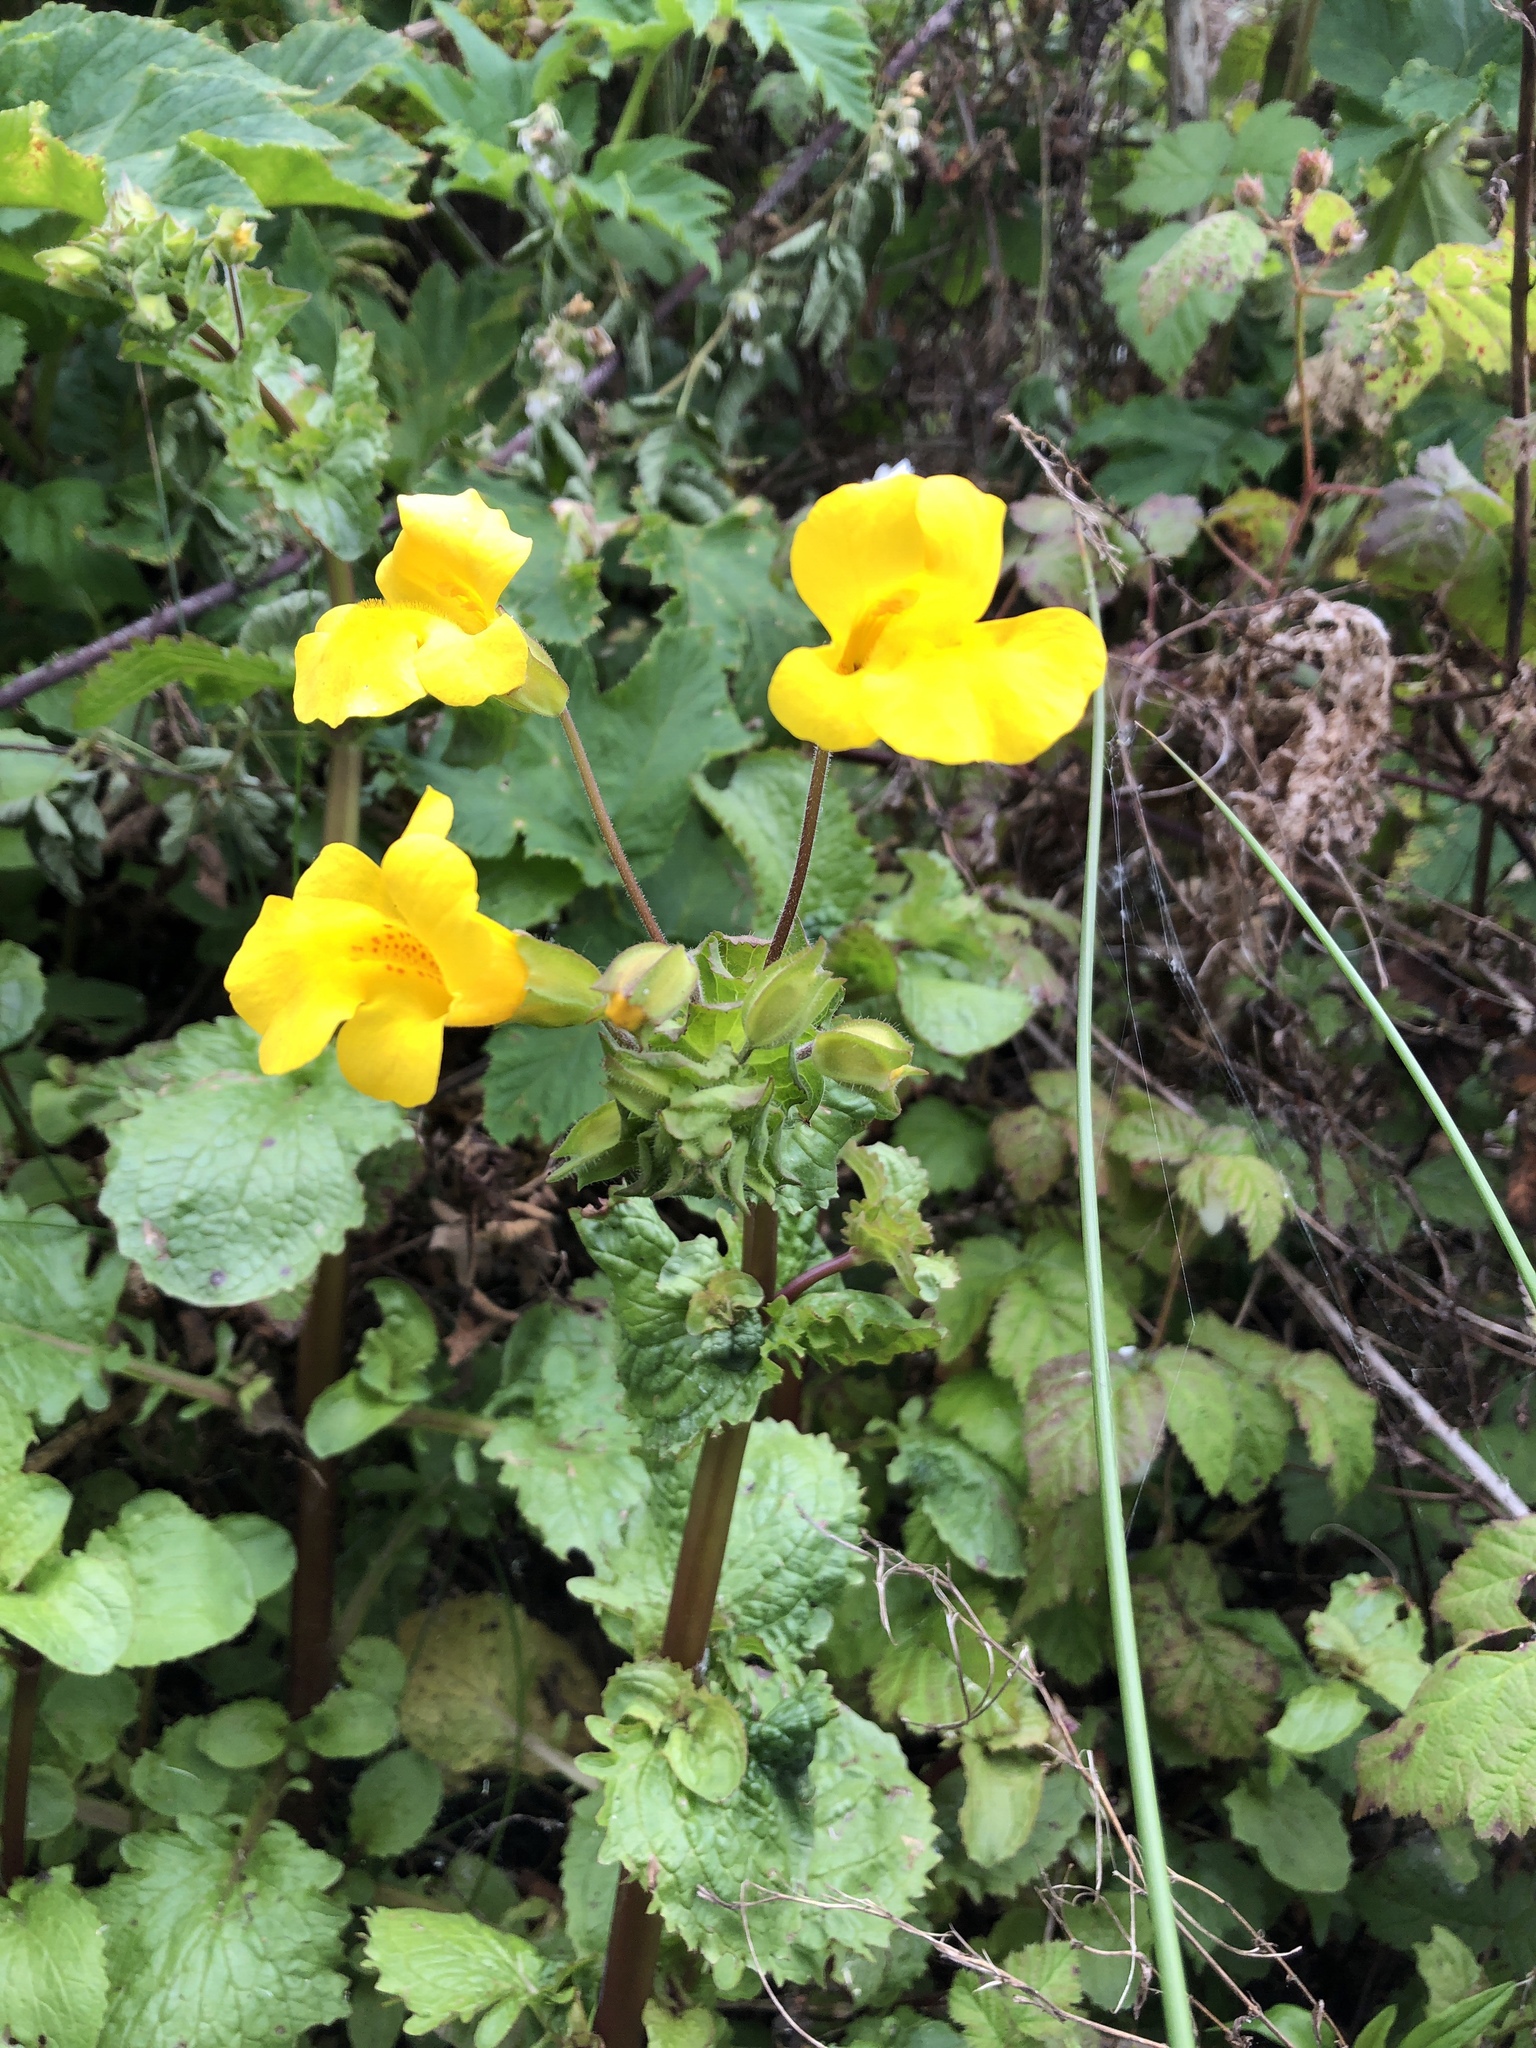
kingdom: Plantae
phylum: Tracheophyta
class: Magnoliopsida
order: Lamiales
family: Phrymaceae
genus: Erythranthe
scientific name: Erythranthe guttata
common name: Monkeyflower
